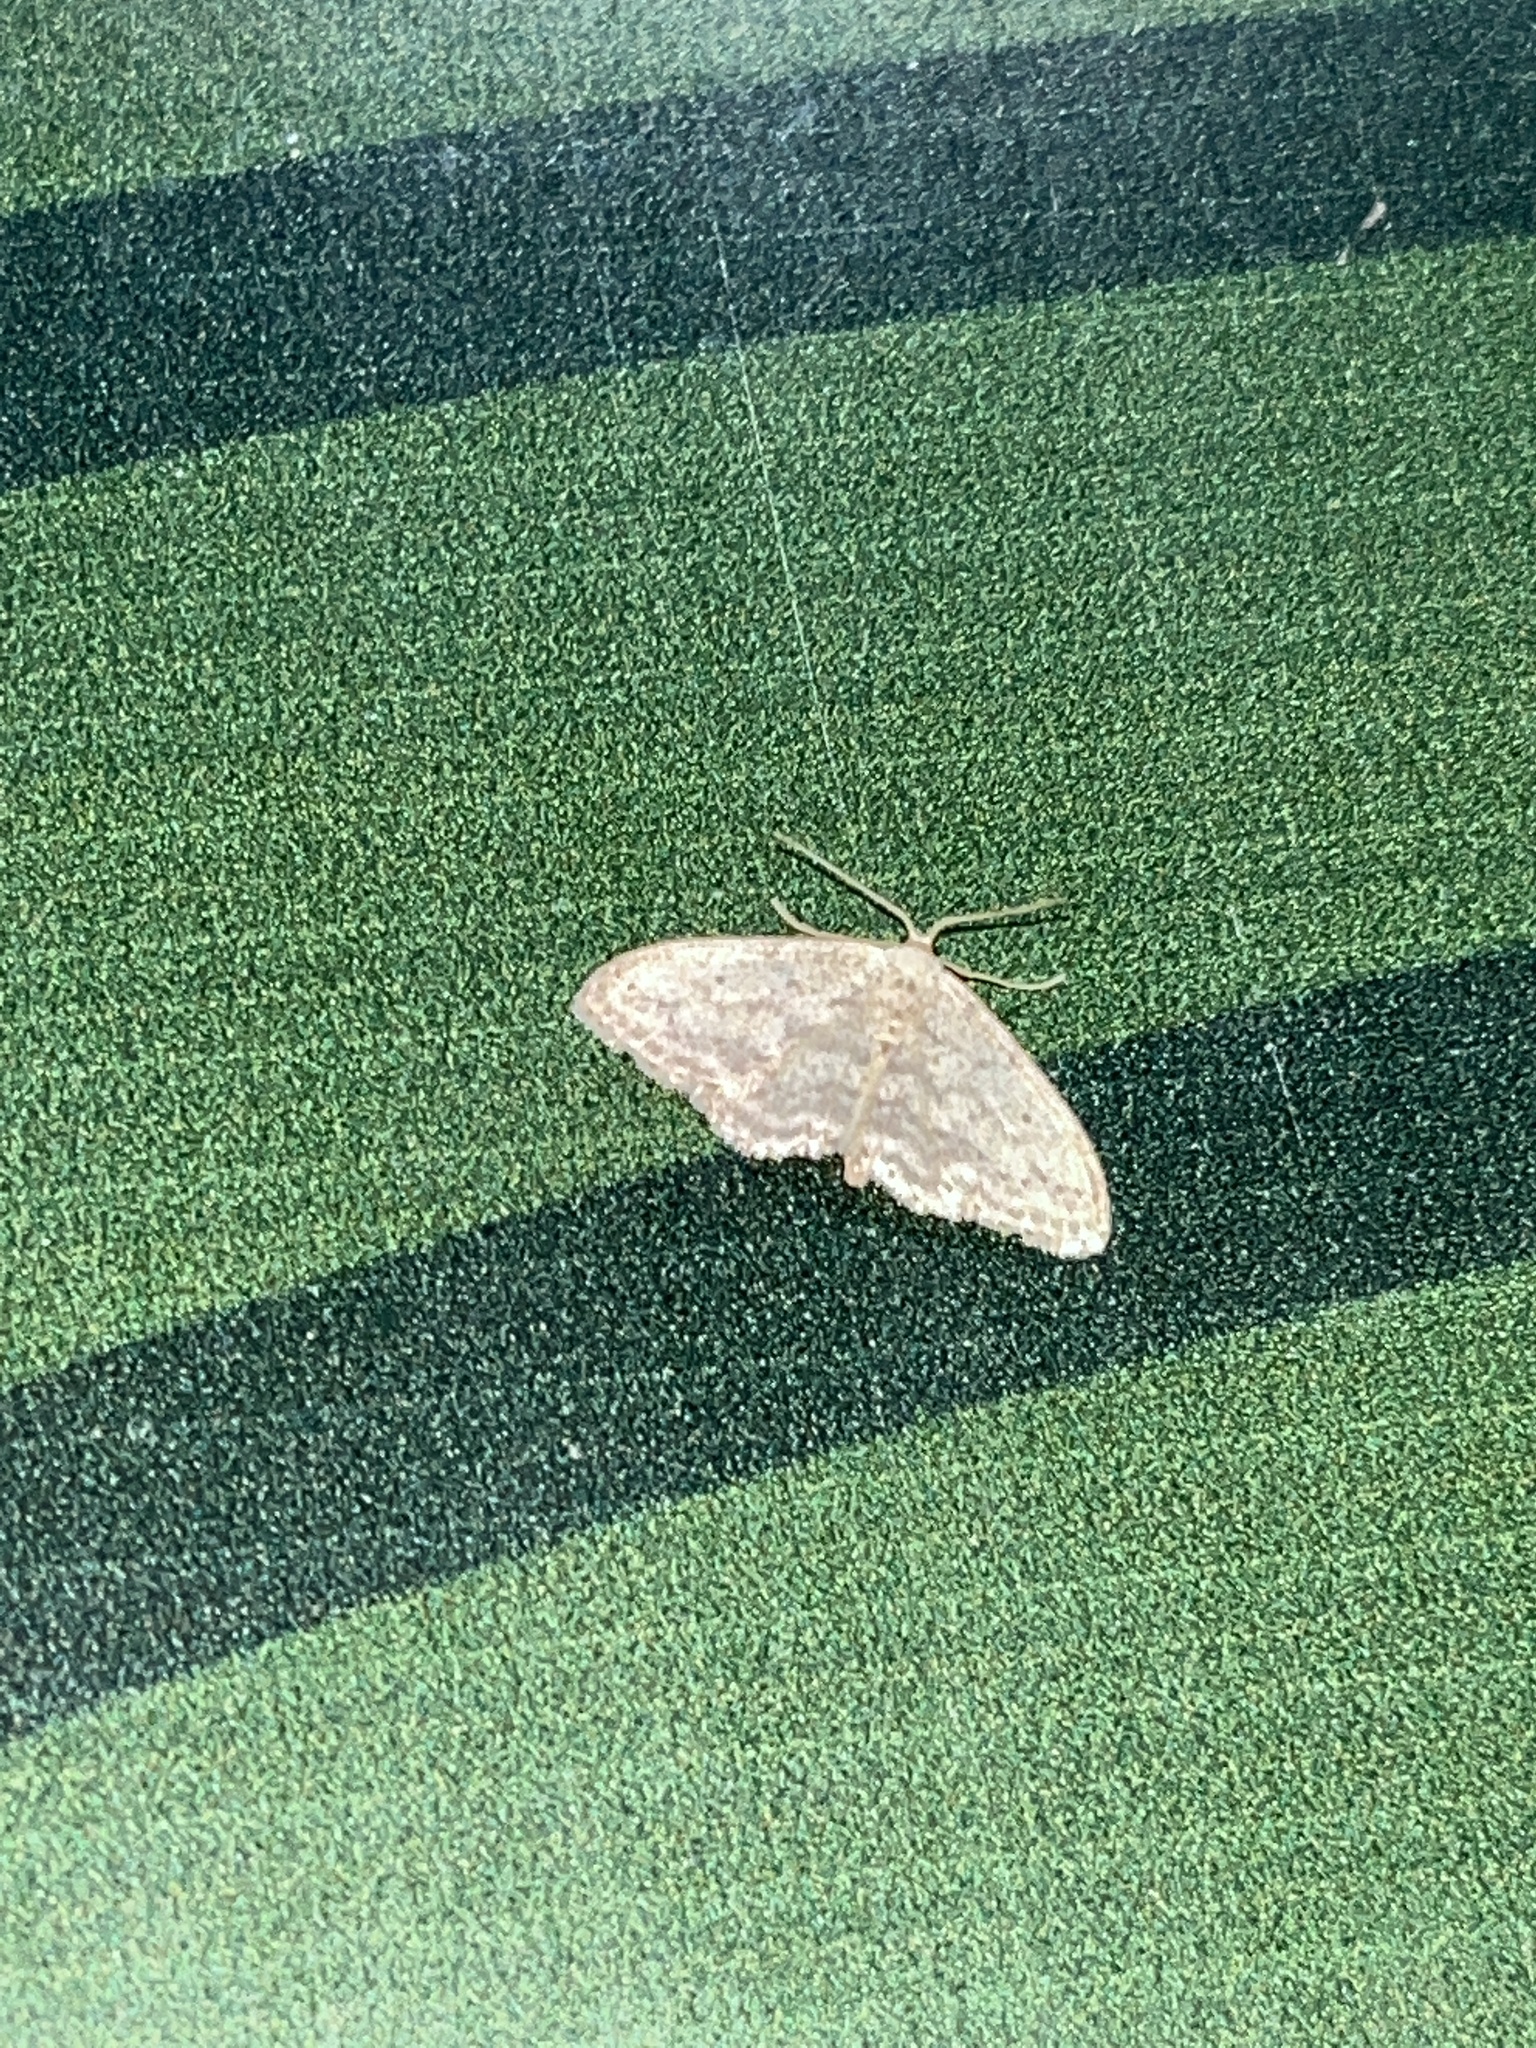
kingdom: Animalia
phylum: Arthropoda
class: Insecta
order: Lepidoptera
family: Geometridae
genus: Idaea
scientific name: Idaea seriata
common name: Small dusty wave
